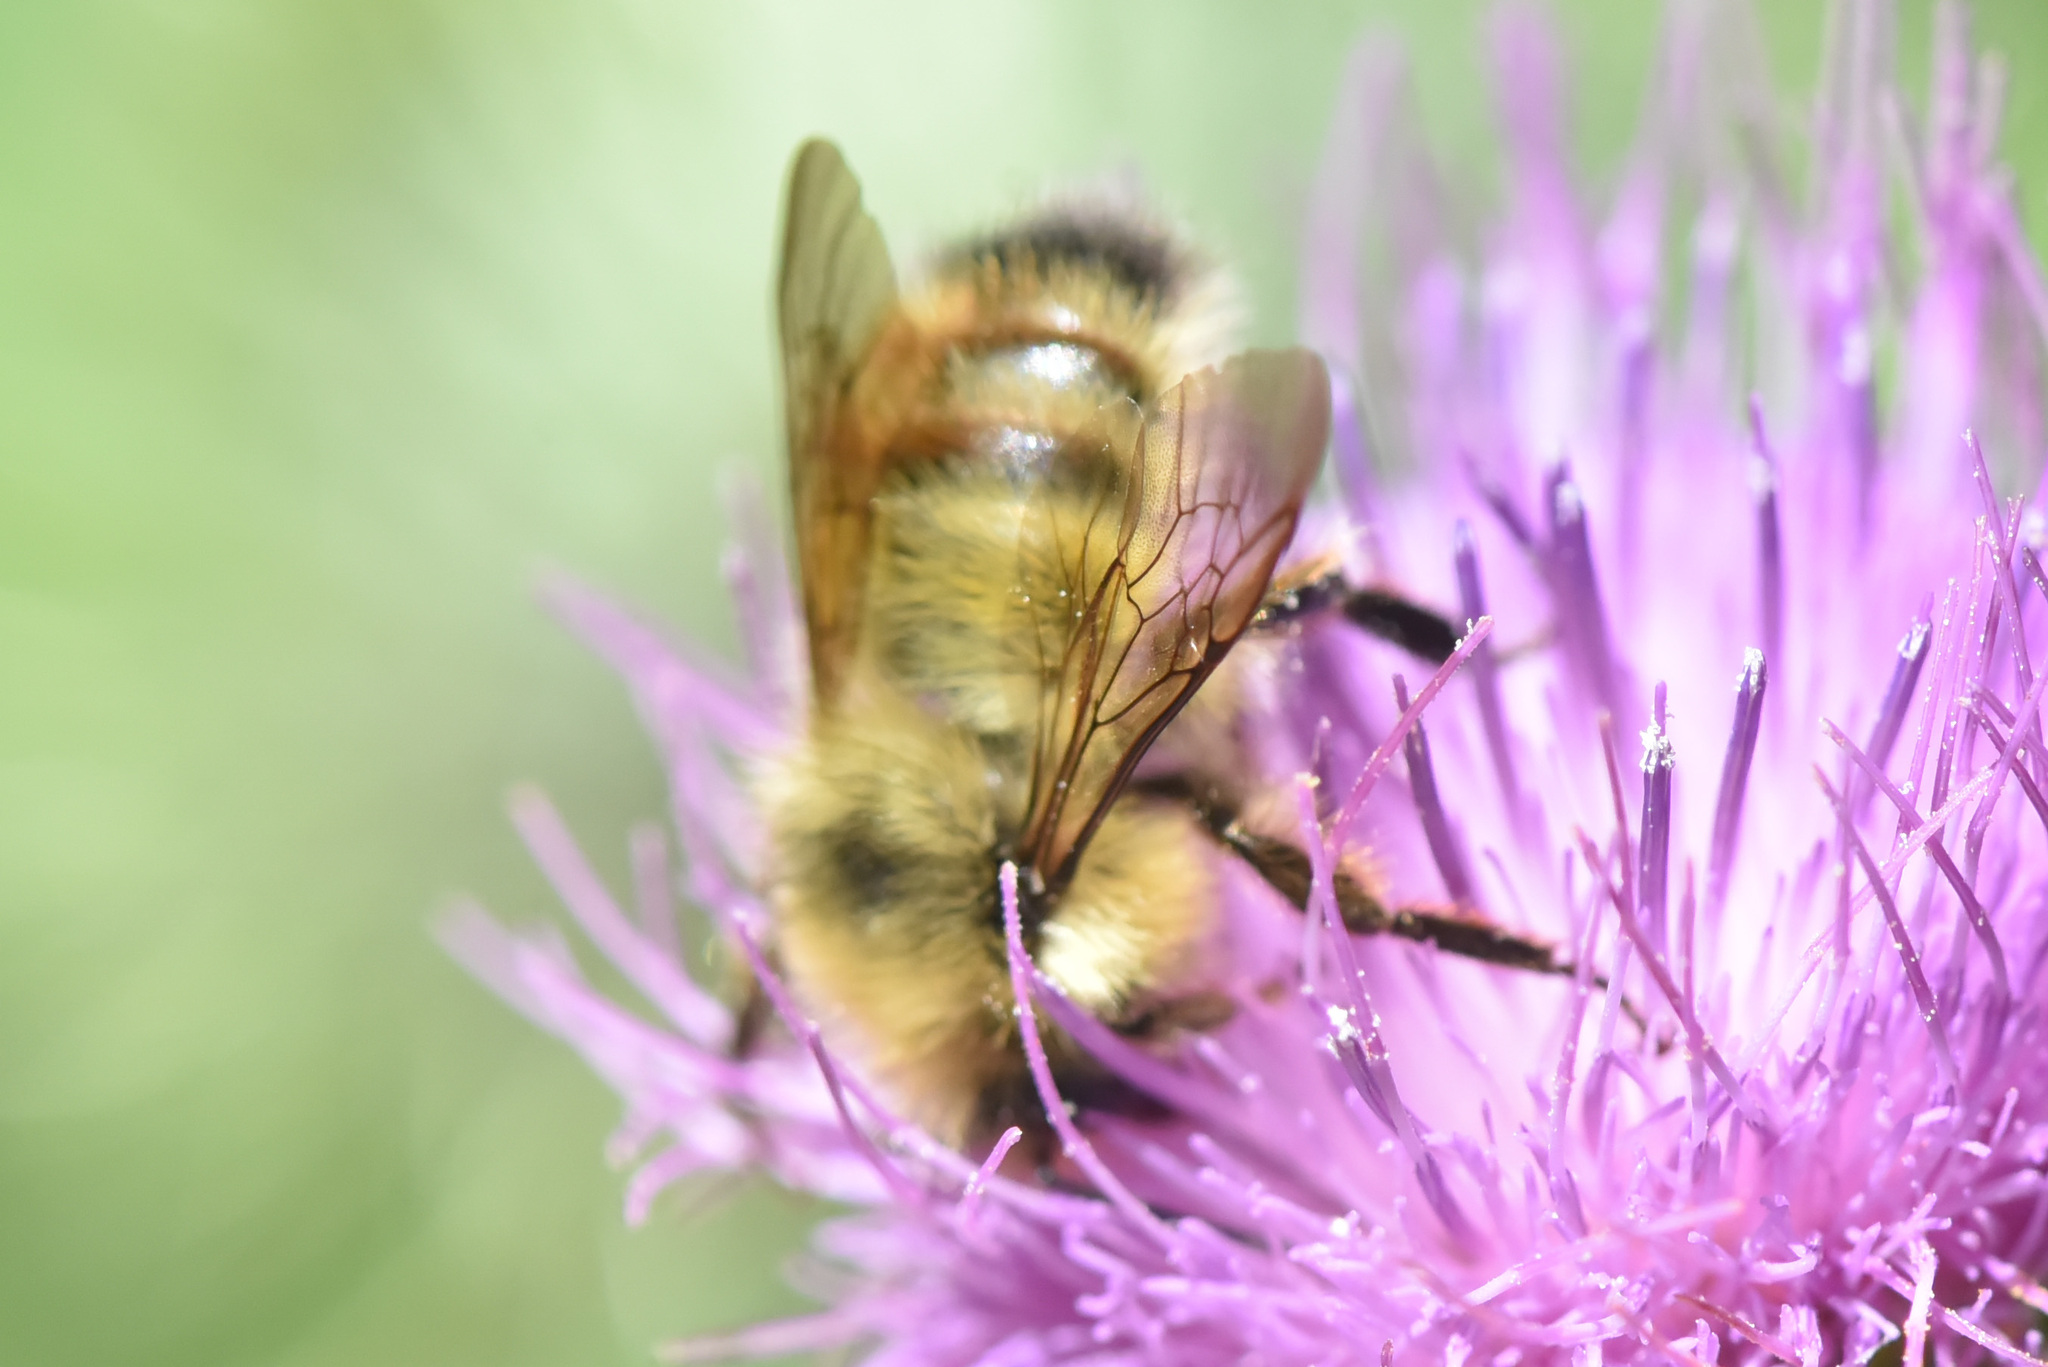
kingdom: Animalia
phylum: Arthropoda
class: Insecta
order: Hymenoptera
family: Apidae
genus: Bombus
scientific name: Bombus flavifrons
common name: Yellow head bumble bee
